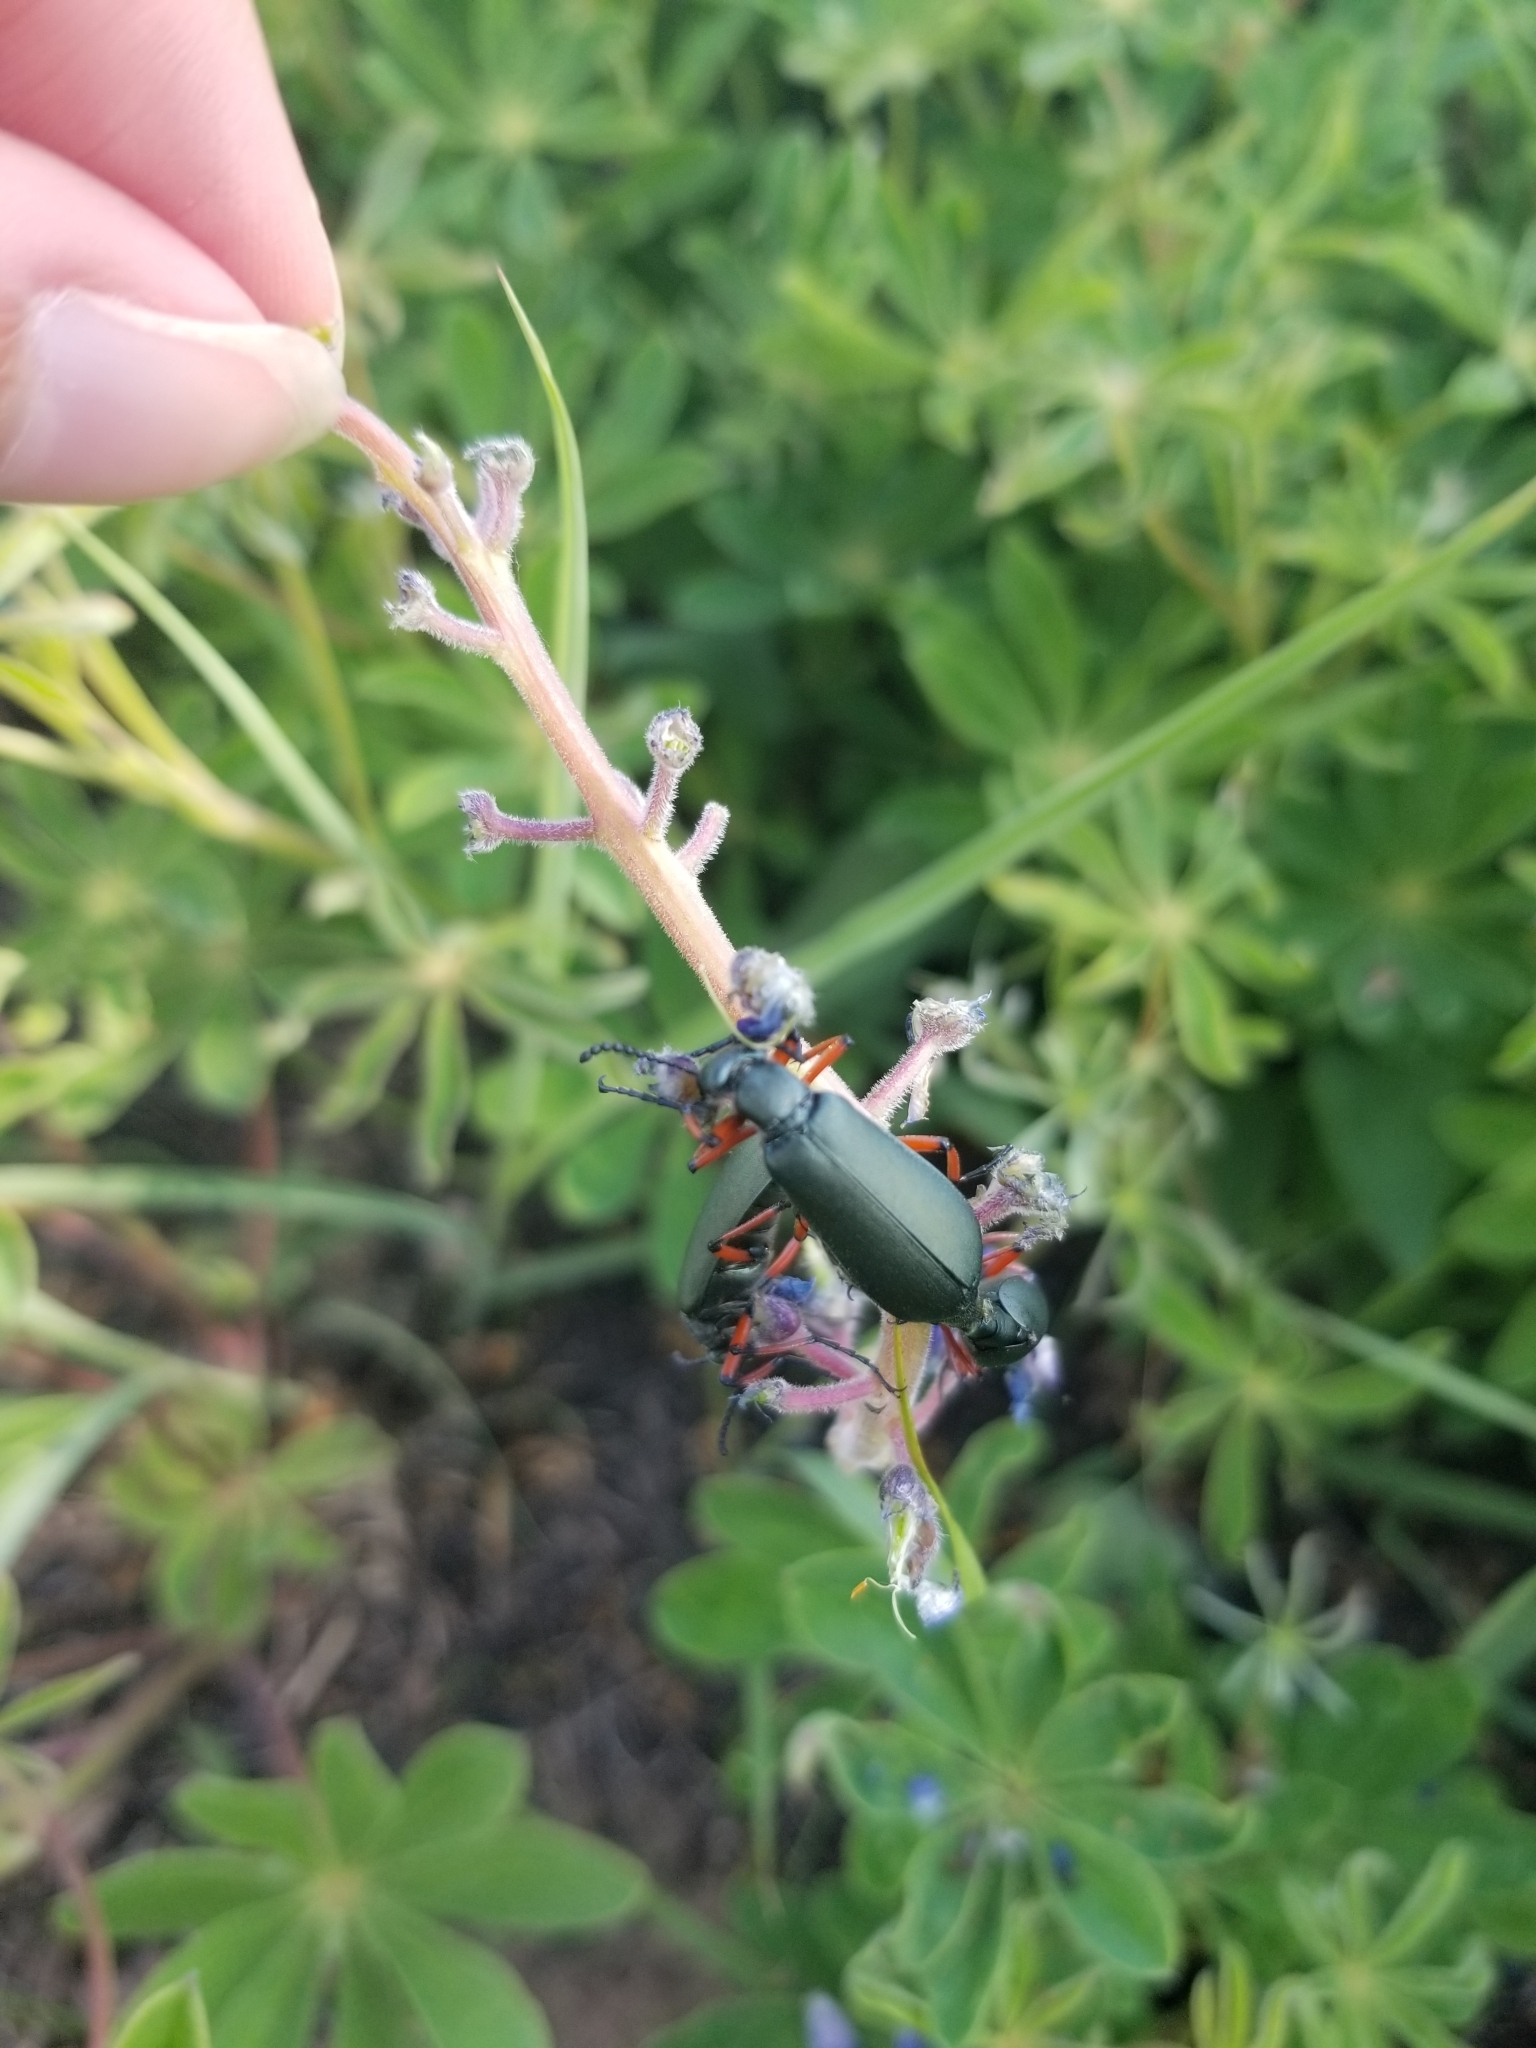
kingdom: Animalia
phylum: Arthropoda
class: Insecta
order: Coleoptera
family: Meloidae
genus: Lytta
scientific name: Lytta sayi
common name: Say's blister beetle
